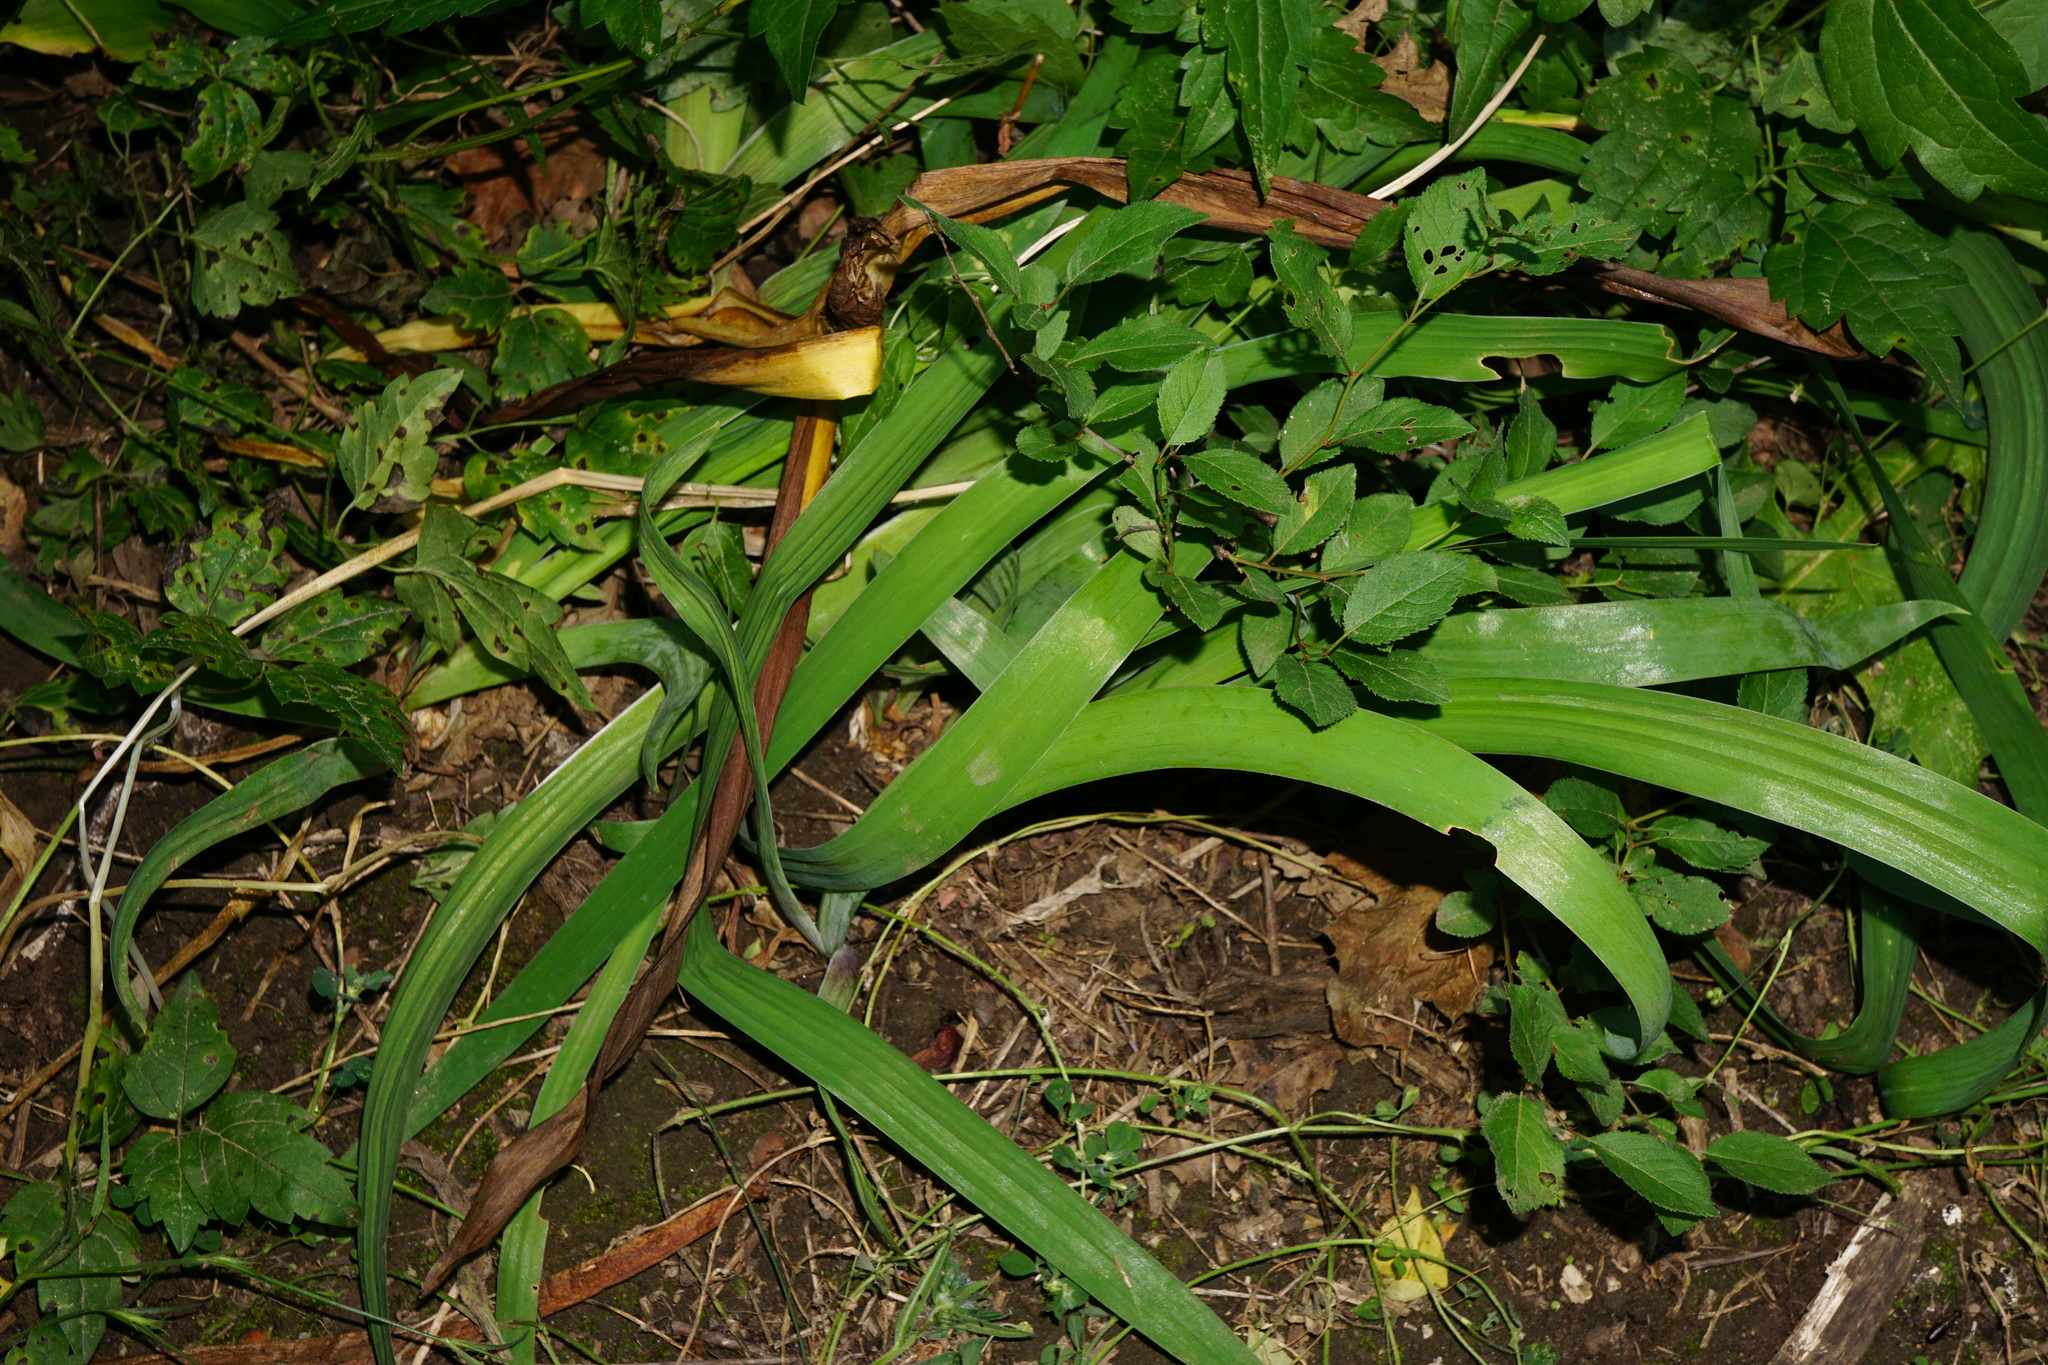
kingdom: Plantae
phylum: Tracheophyta
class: Liliopsida
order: Asparagales
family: Iridaceae
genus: Iris
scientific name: Iris variegata
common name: Hungarian iris
